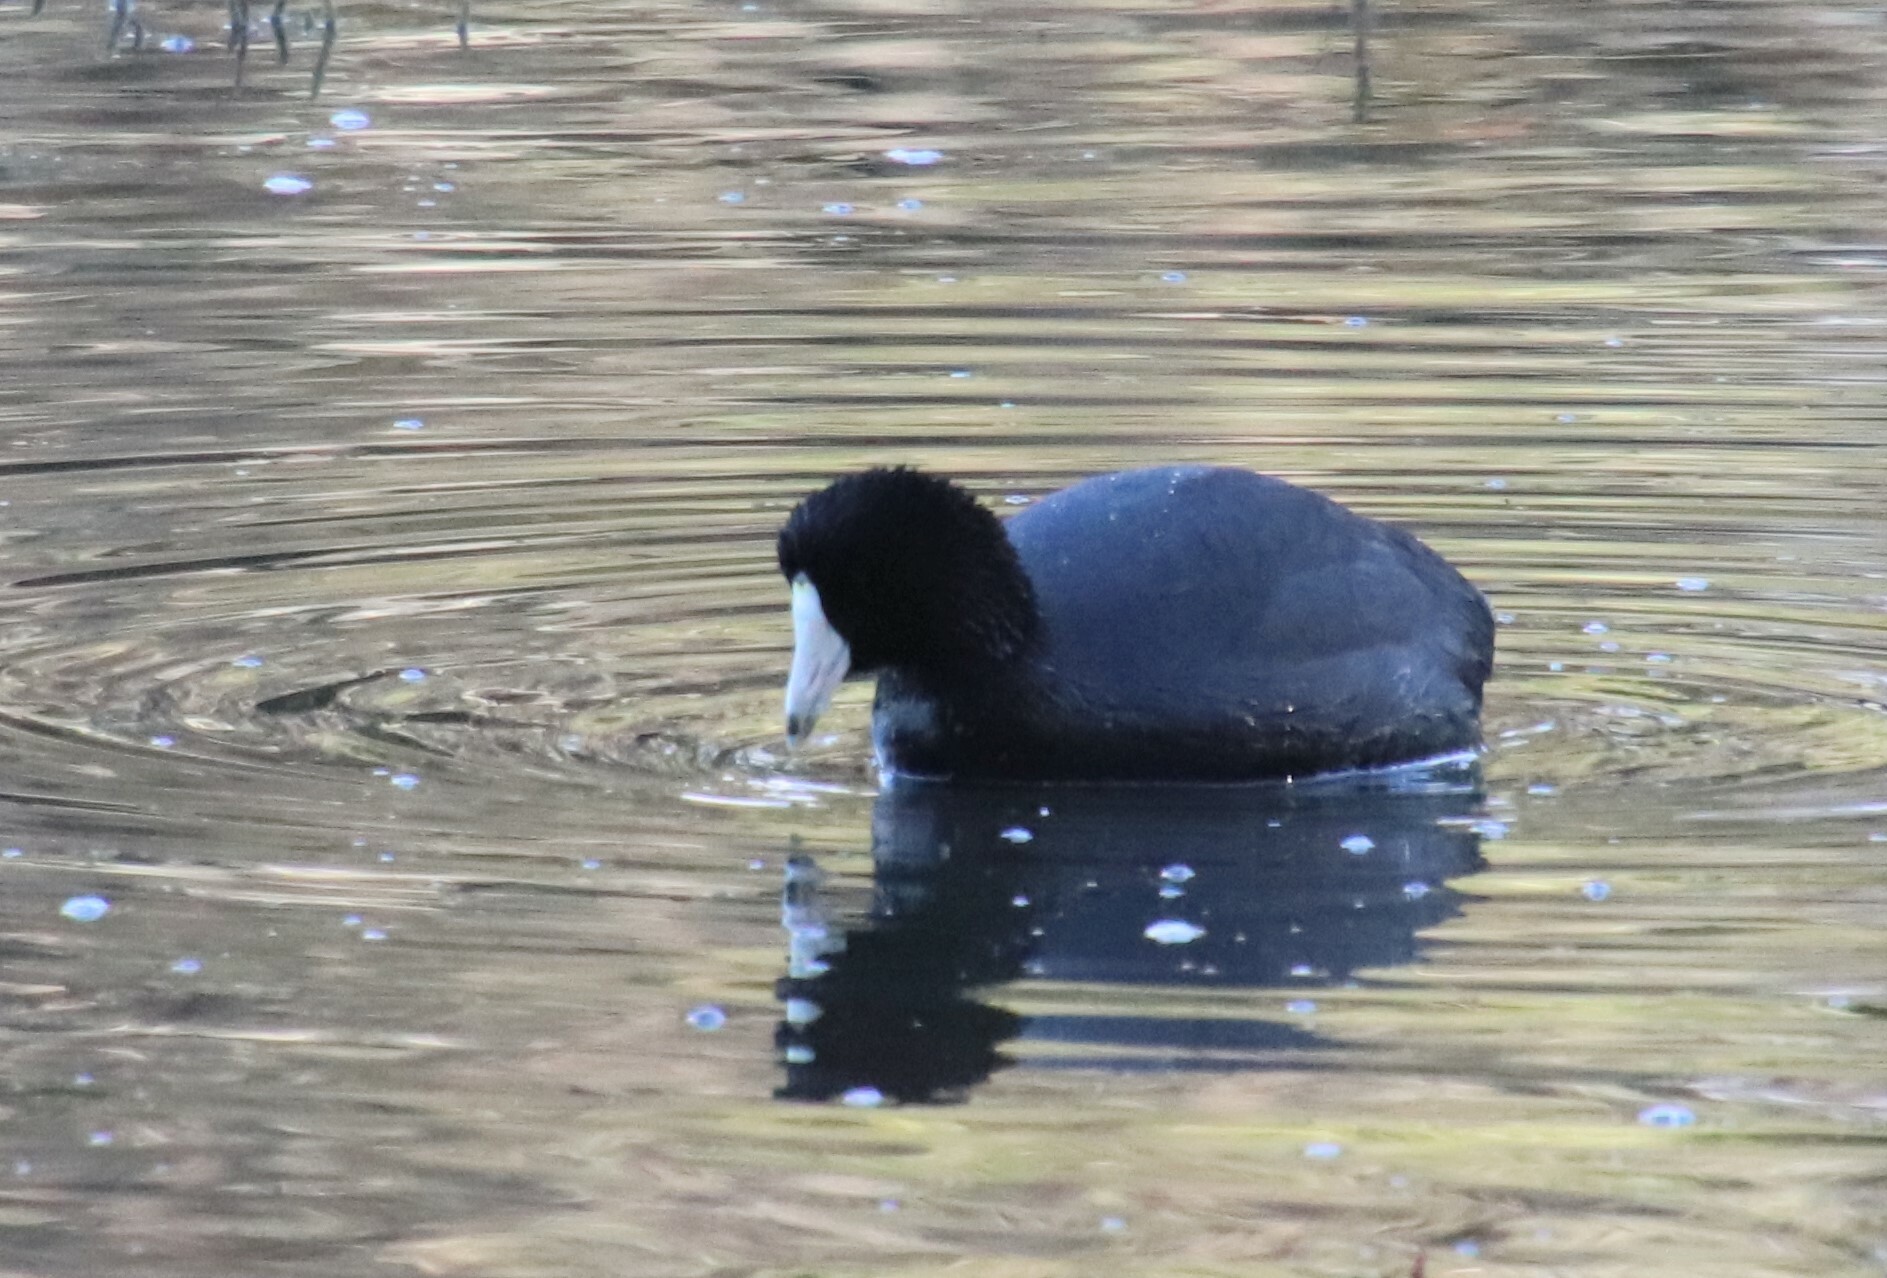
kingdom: Animalia
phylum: Chordata
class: Aves
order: Gruiformes
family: Rallidae
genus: Fulica
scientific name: Fulica americana
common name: American coot
